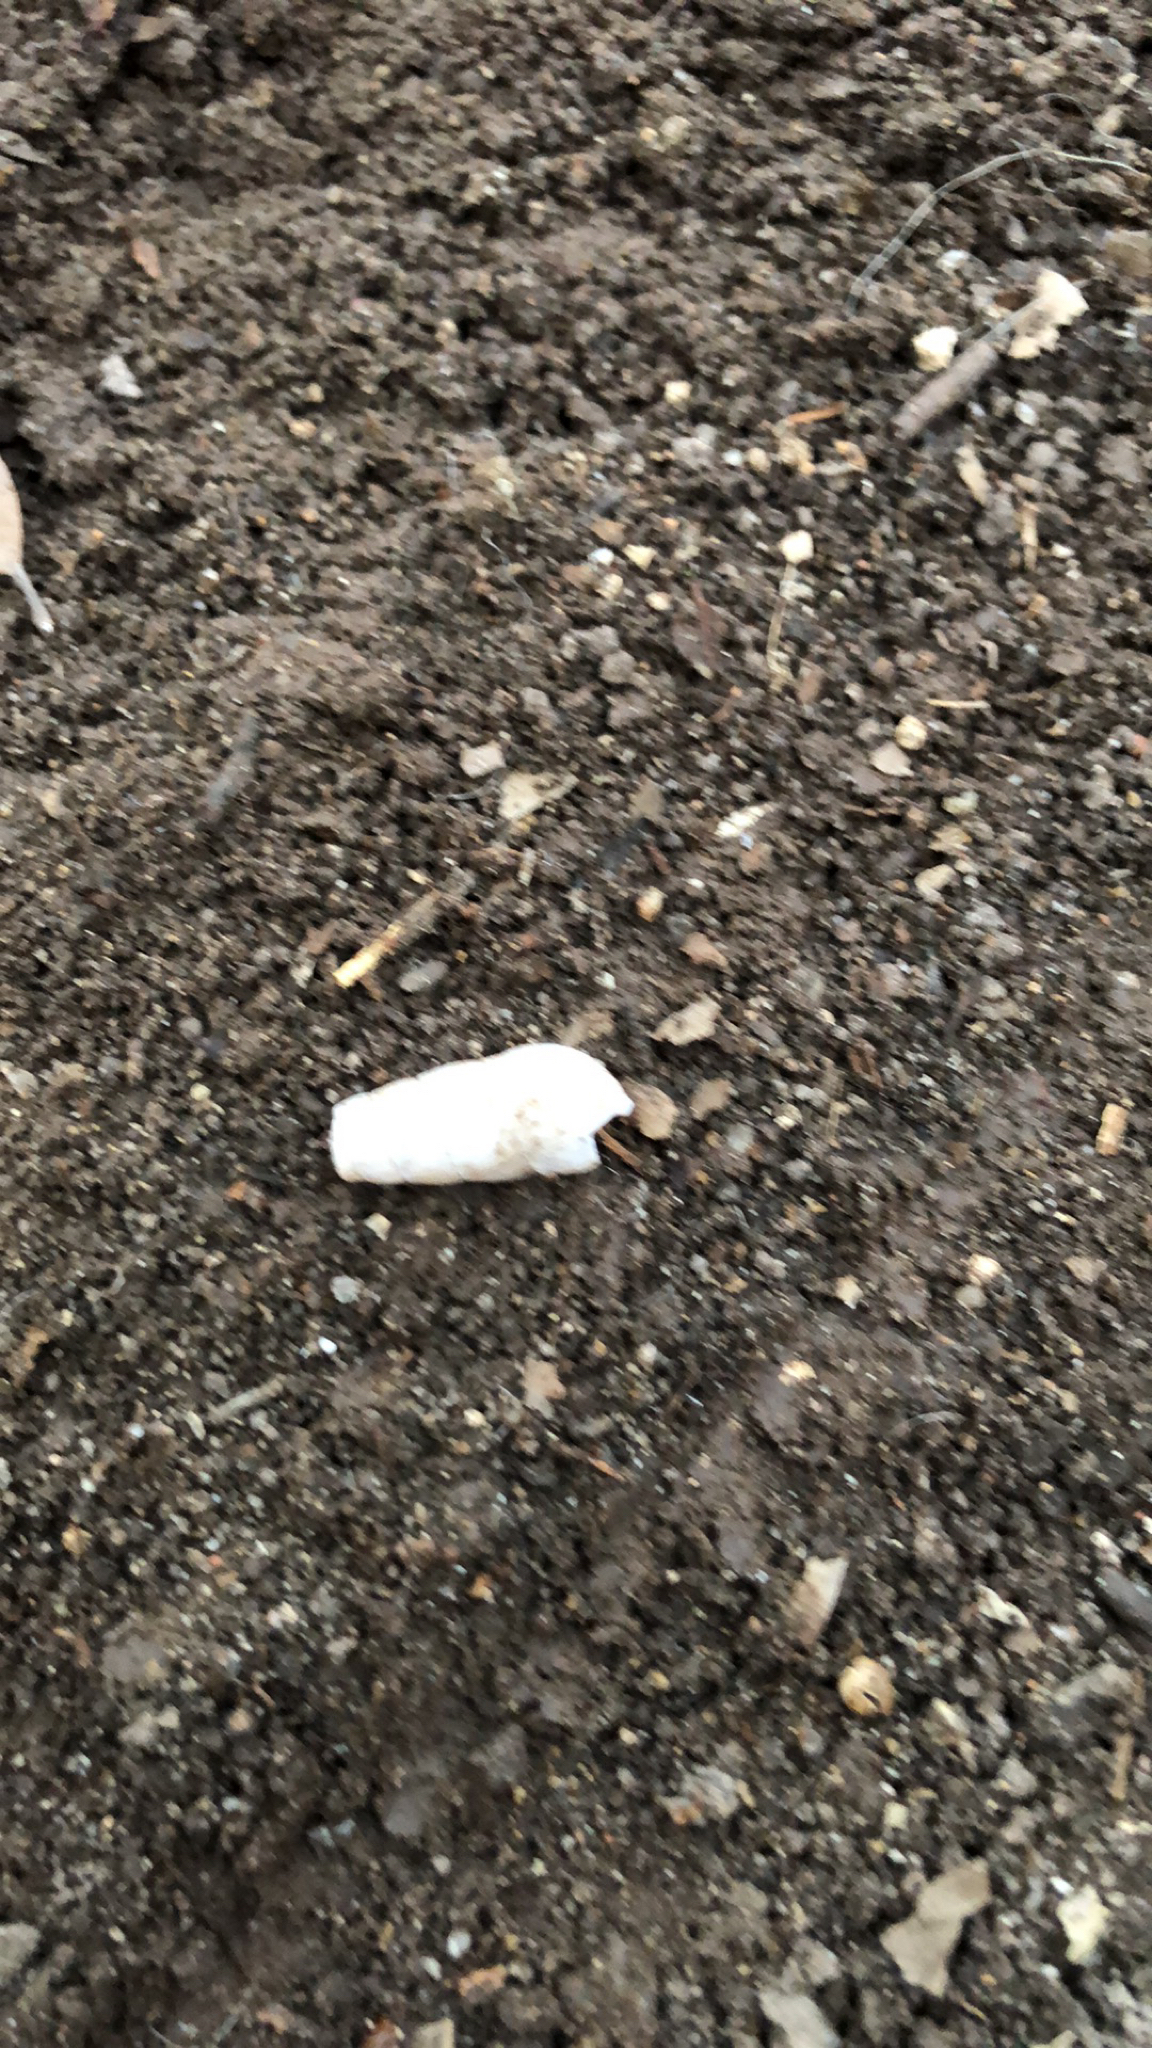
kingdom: Animalia
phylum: Mollusca
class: Gastropoda
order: Stylommatophora
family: Achatinidae
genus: Rumina
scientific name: Rumina decollata
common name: Decollate snail
